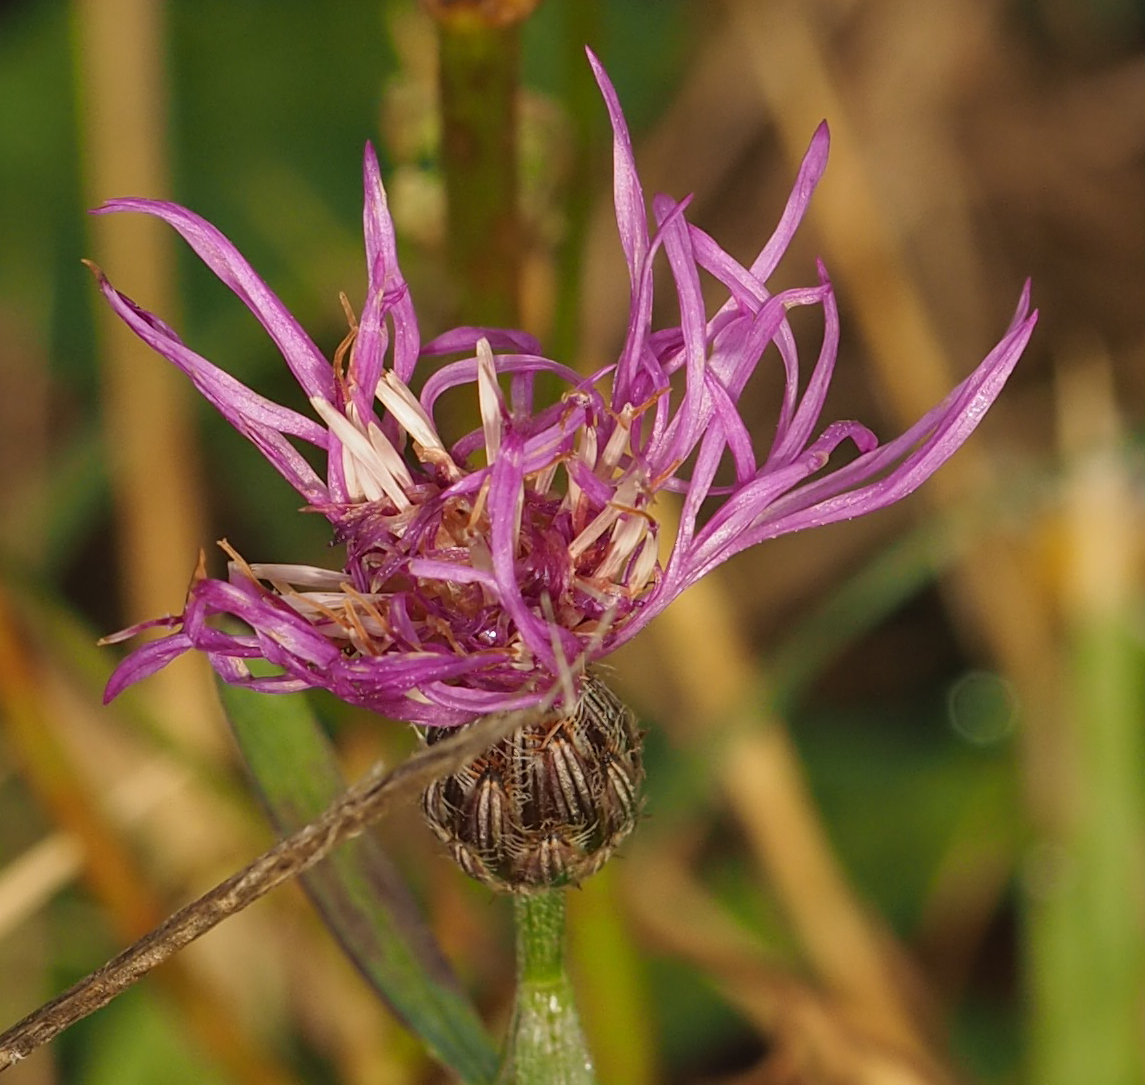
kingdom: Plantae
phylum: Tracheophyta
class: Magnoliopsida
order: Asterales
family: Asteraceae
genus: Centaurea
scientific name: Centaurea stoebe
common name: Spotted knapweed
